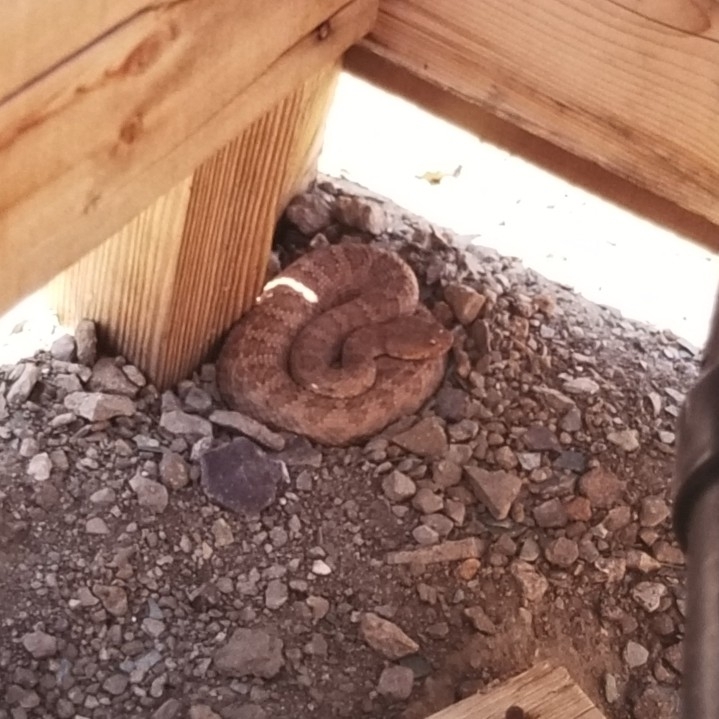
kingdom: Animalia
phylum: Chordata
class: Squamata
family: Viperidae
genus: Crotalus
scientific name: Crotalus oreganus
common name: Abyssus
